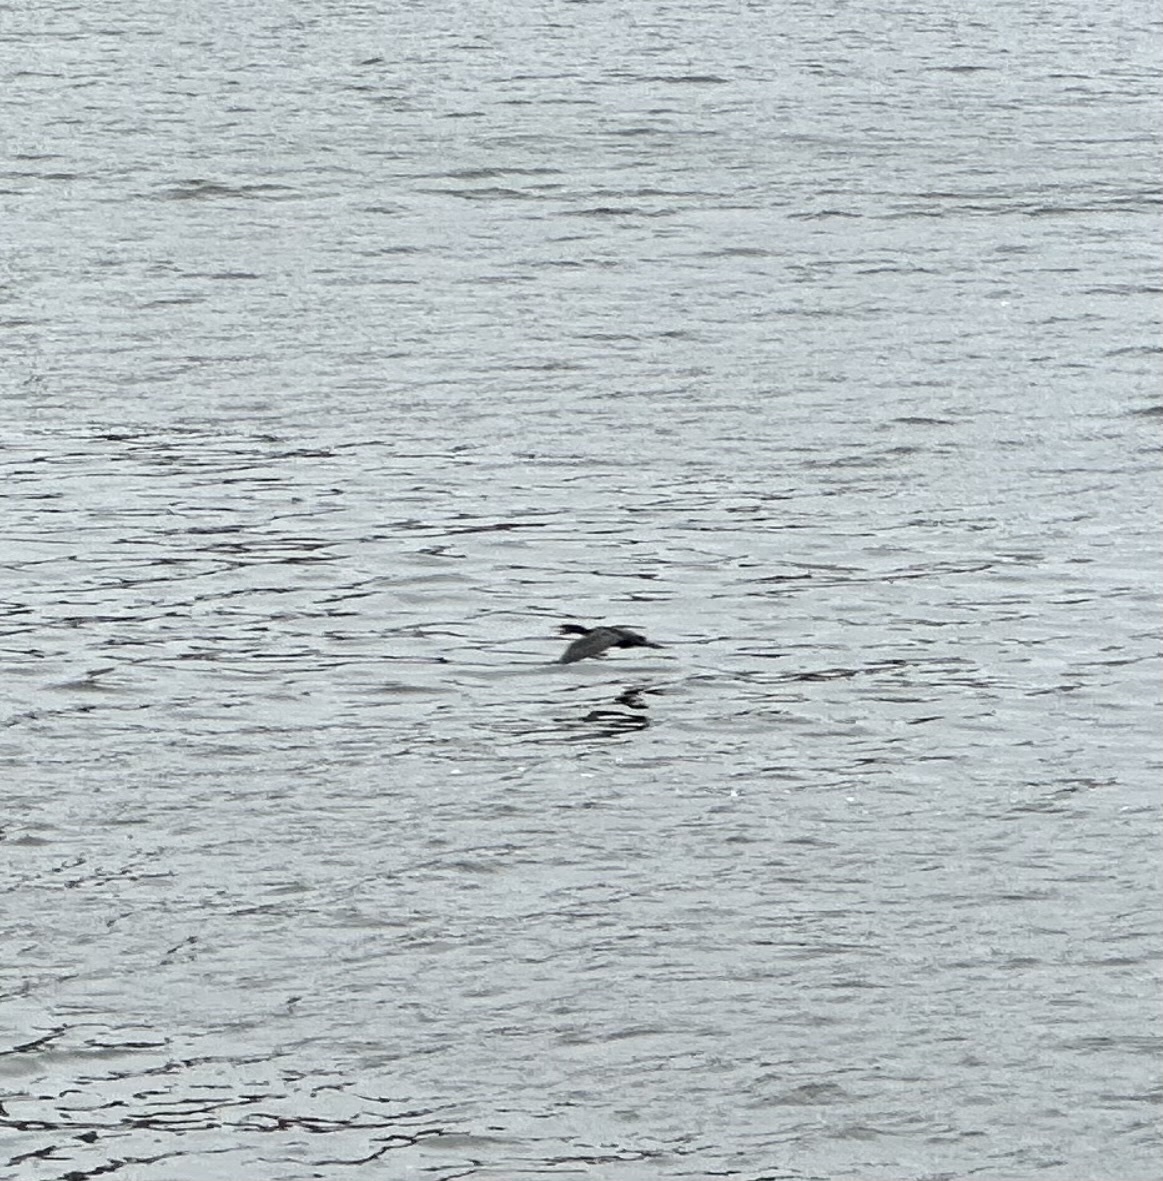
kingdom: Animalia
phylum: Chordata
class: Aves
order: Suliformes
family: Phalacrocoracidae
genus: Phalacrocorax
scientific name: Phalacrocorax carbo
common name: Great cormorant
